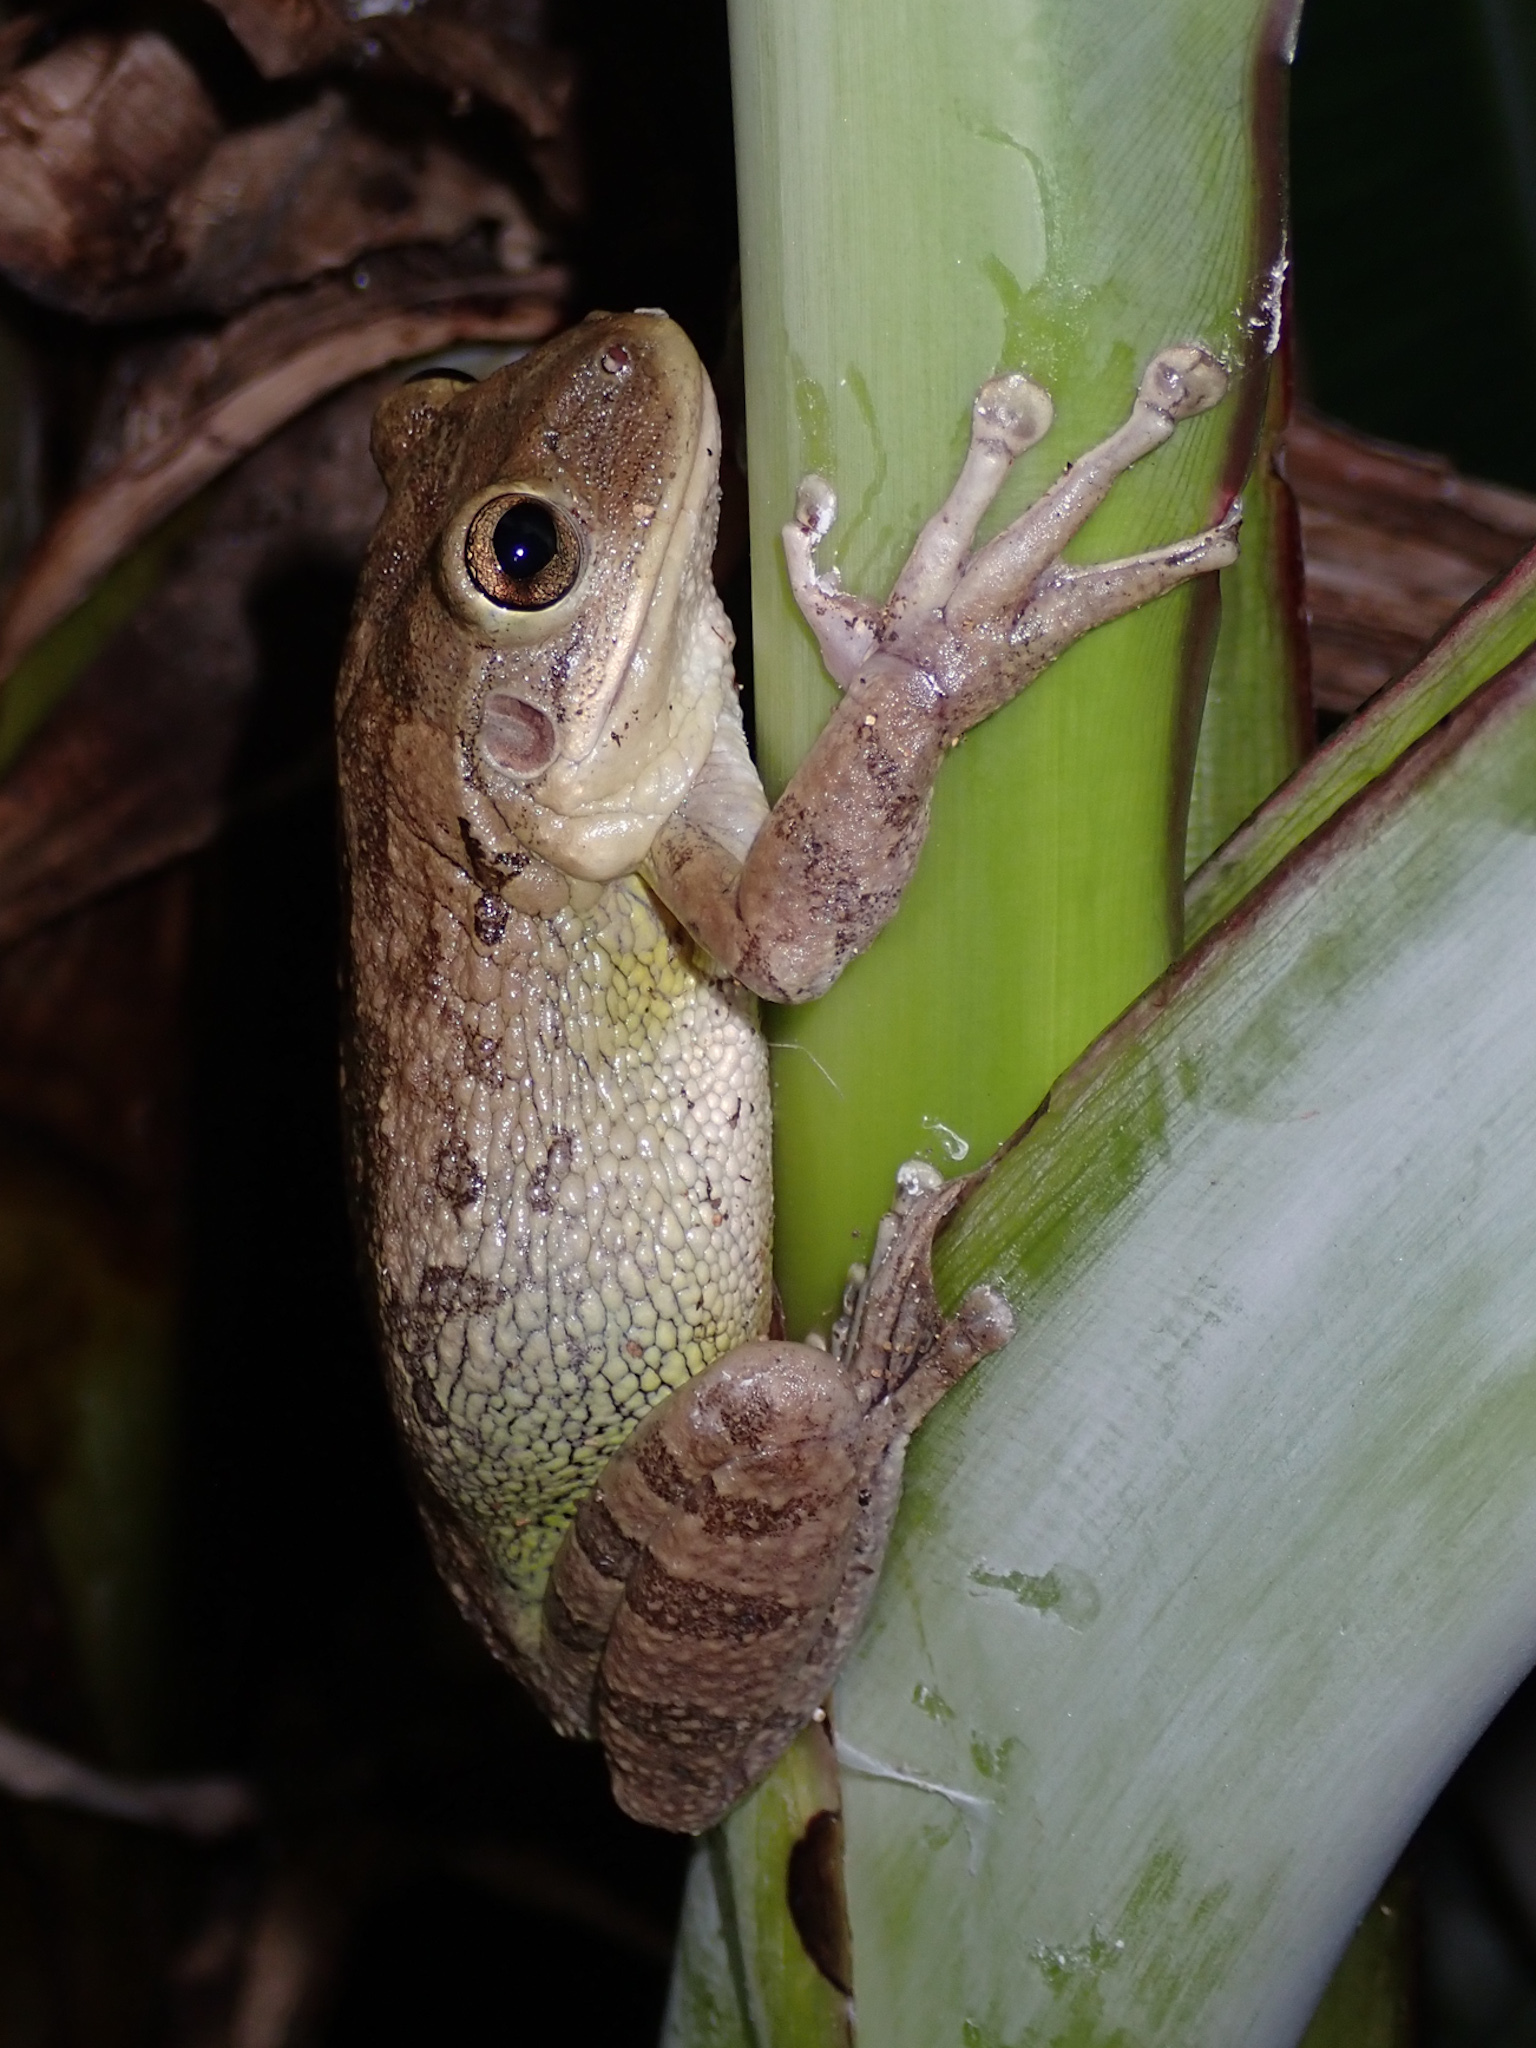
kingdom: Animalia
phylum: Chordata
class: Amphibia
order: Anura
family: Hylidae
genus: Osteopilus
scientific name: Osteopilus septentrionalis
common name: Cuban treefrog
